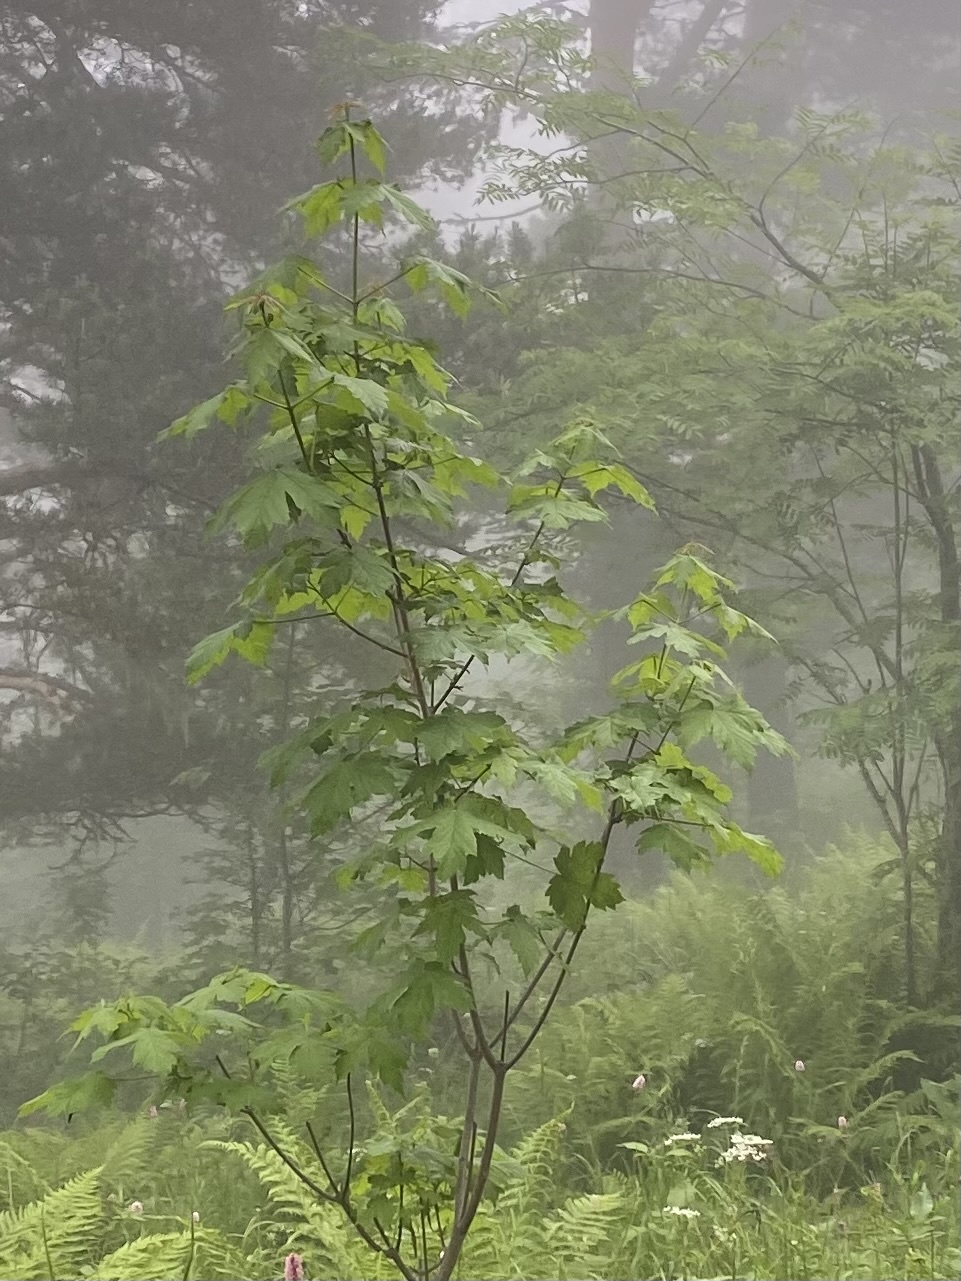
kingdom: Plantae
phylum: Tracheophyta
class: Magnoliopsida
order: Sapindales
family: Sapindaceae
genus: Acer
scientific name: Acer pseudoplatanus
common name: Sycamore
